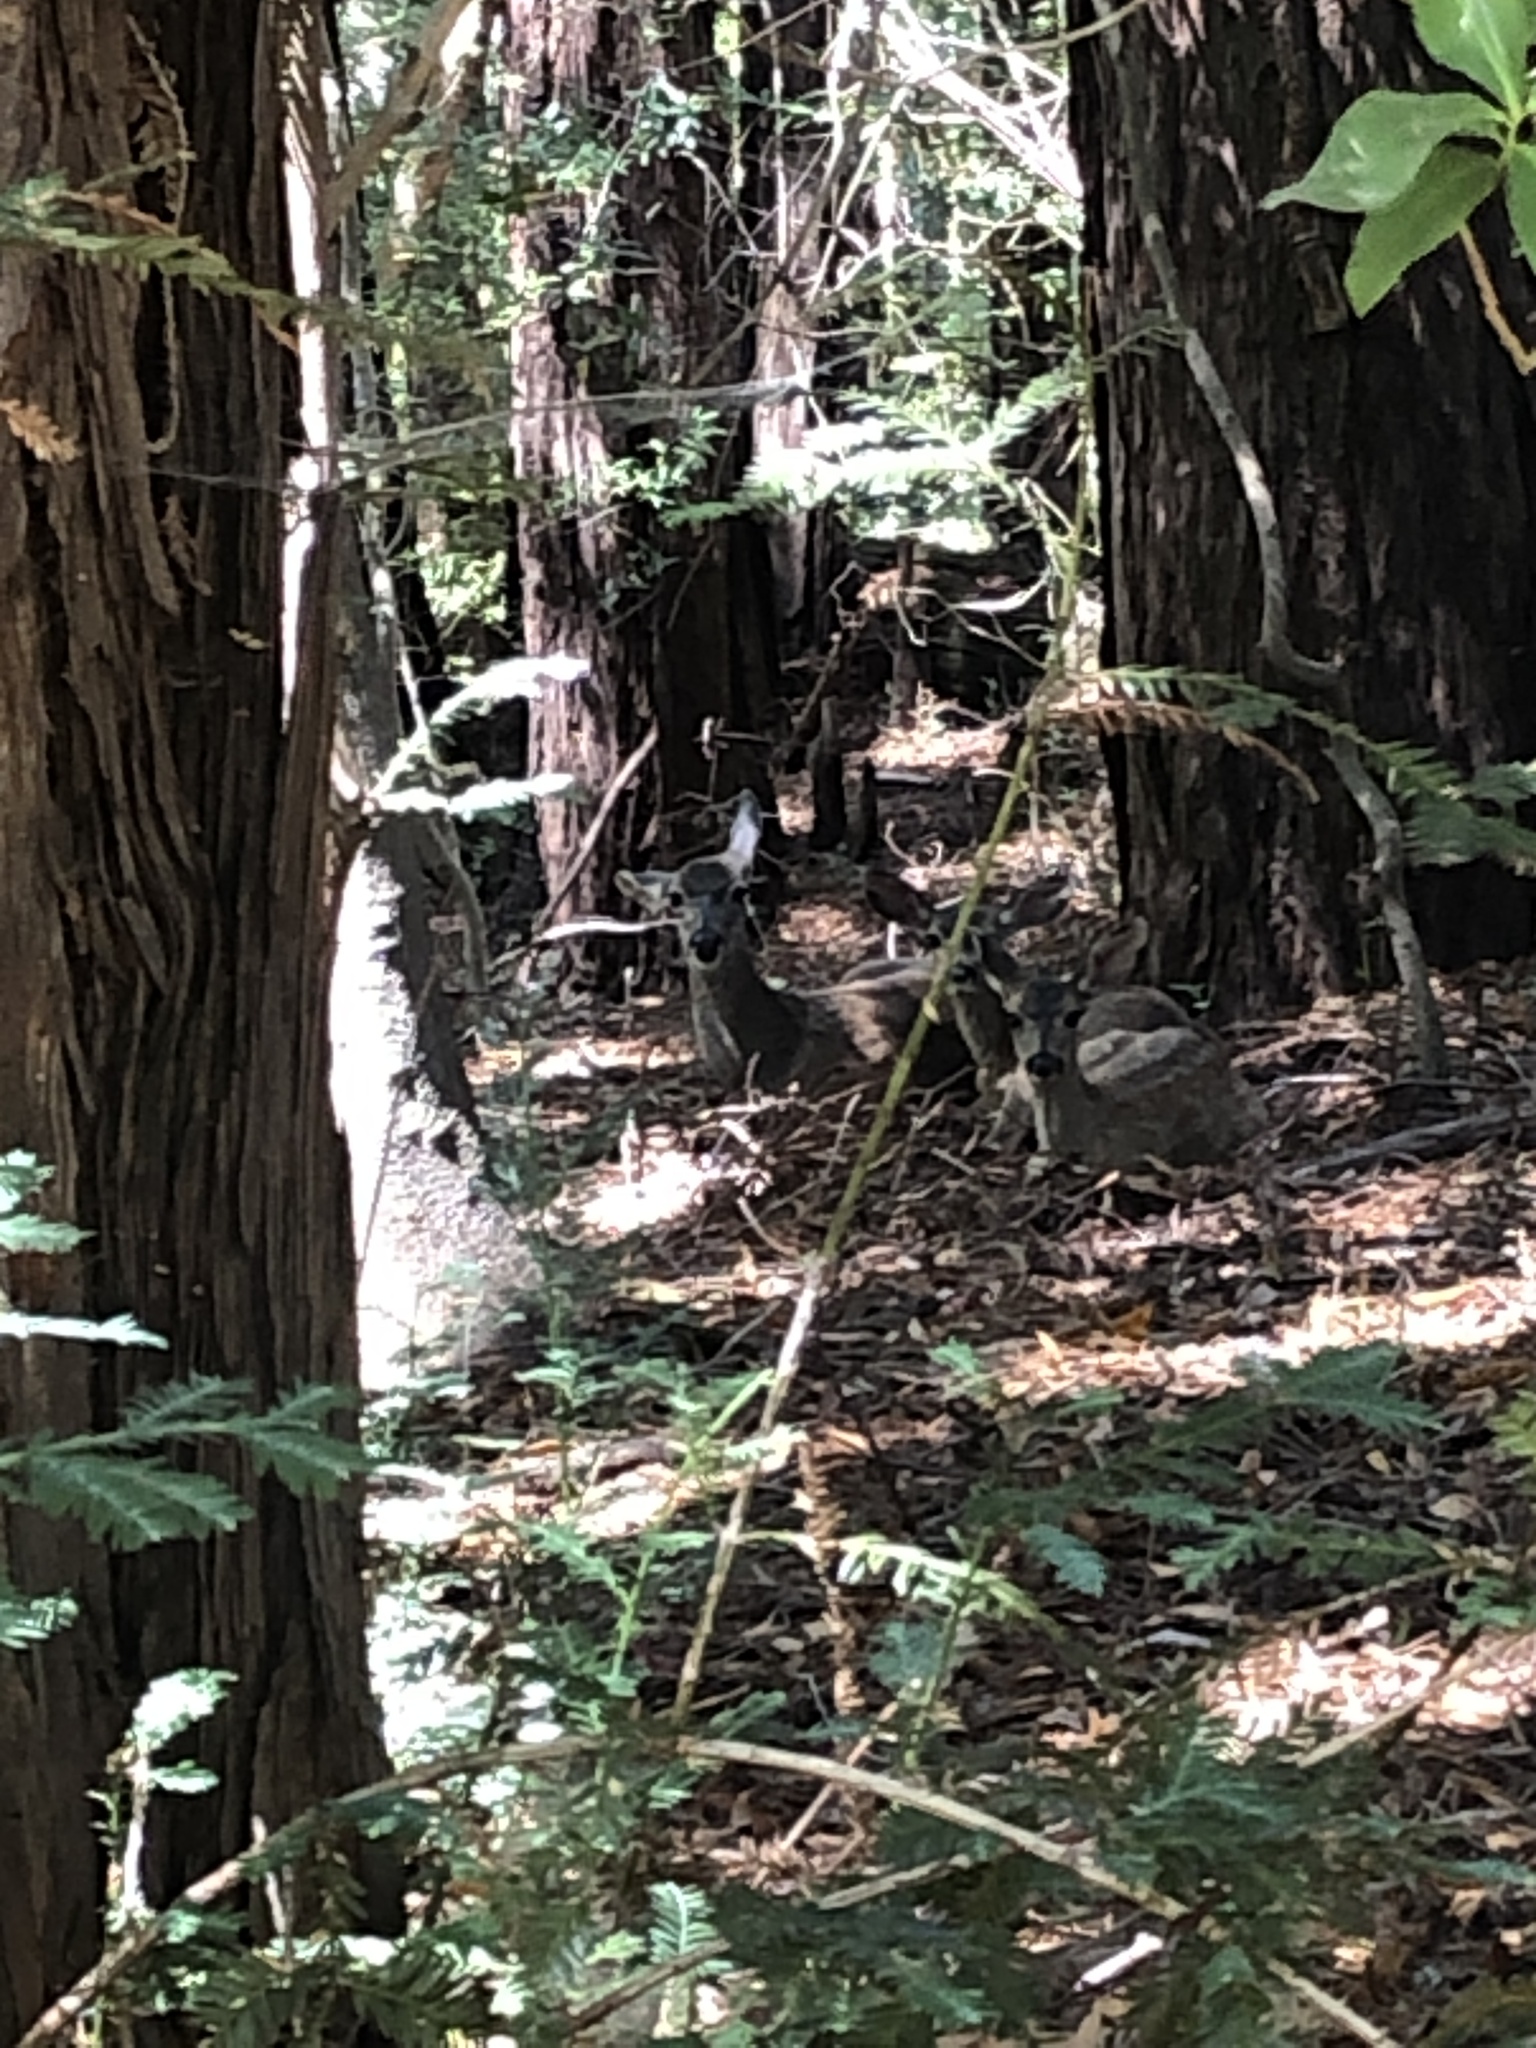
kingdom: Animalia
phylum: Chordata
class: Mammalia
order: Artiodactyla
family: Cervidae
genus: Odocoileus
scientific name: Odocoileus hemionus
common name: Mule deer
